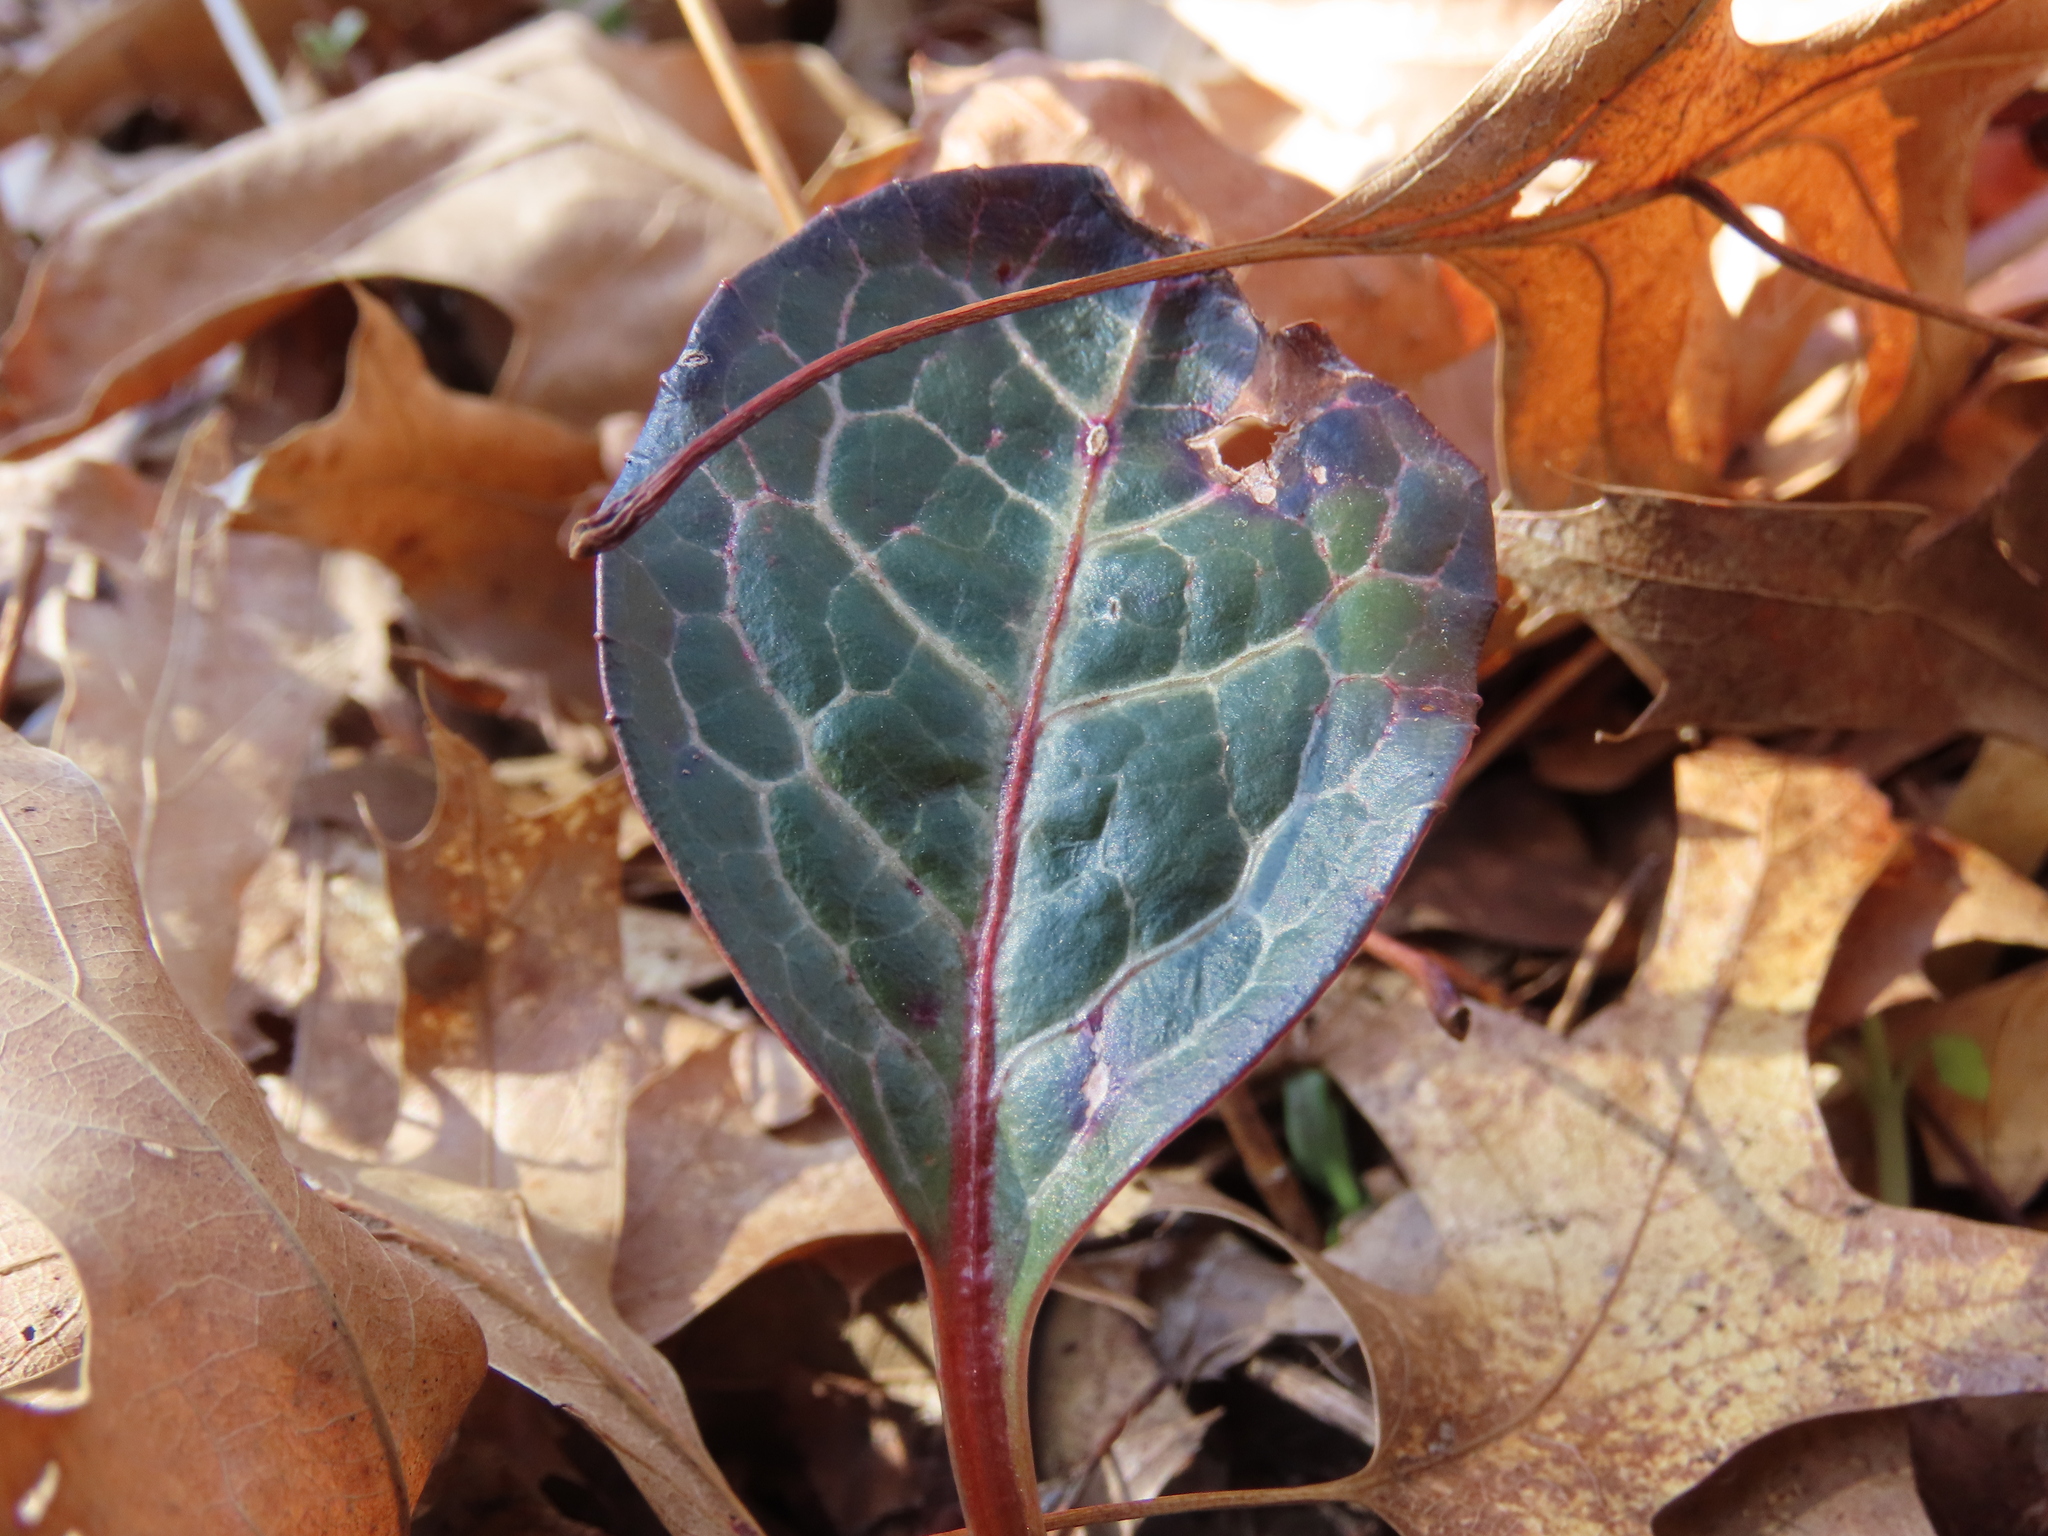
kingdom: Plantae
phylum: Tracheophyta
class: Magnoliopsida
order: Ericales
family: Ericaceae
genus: Pyrola
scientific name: Pyrola americana
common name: American wintergreen
